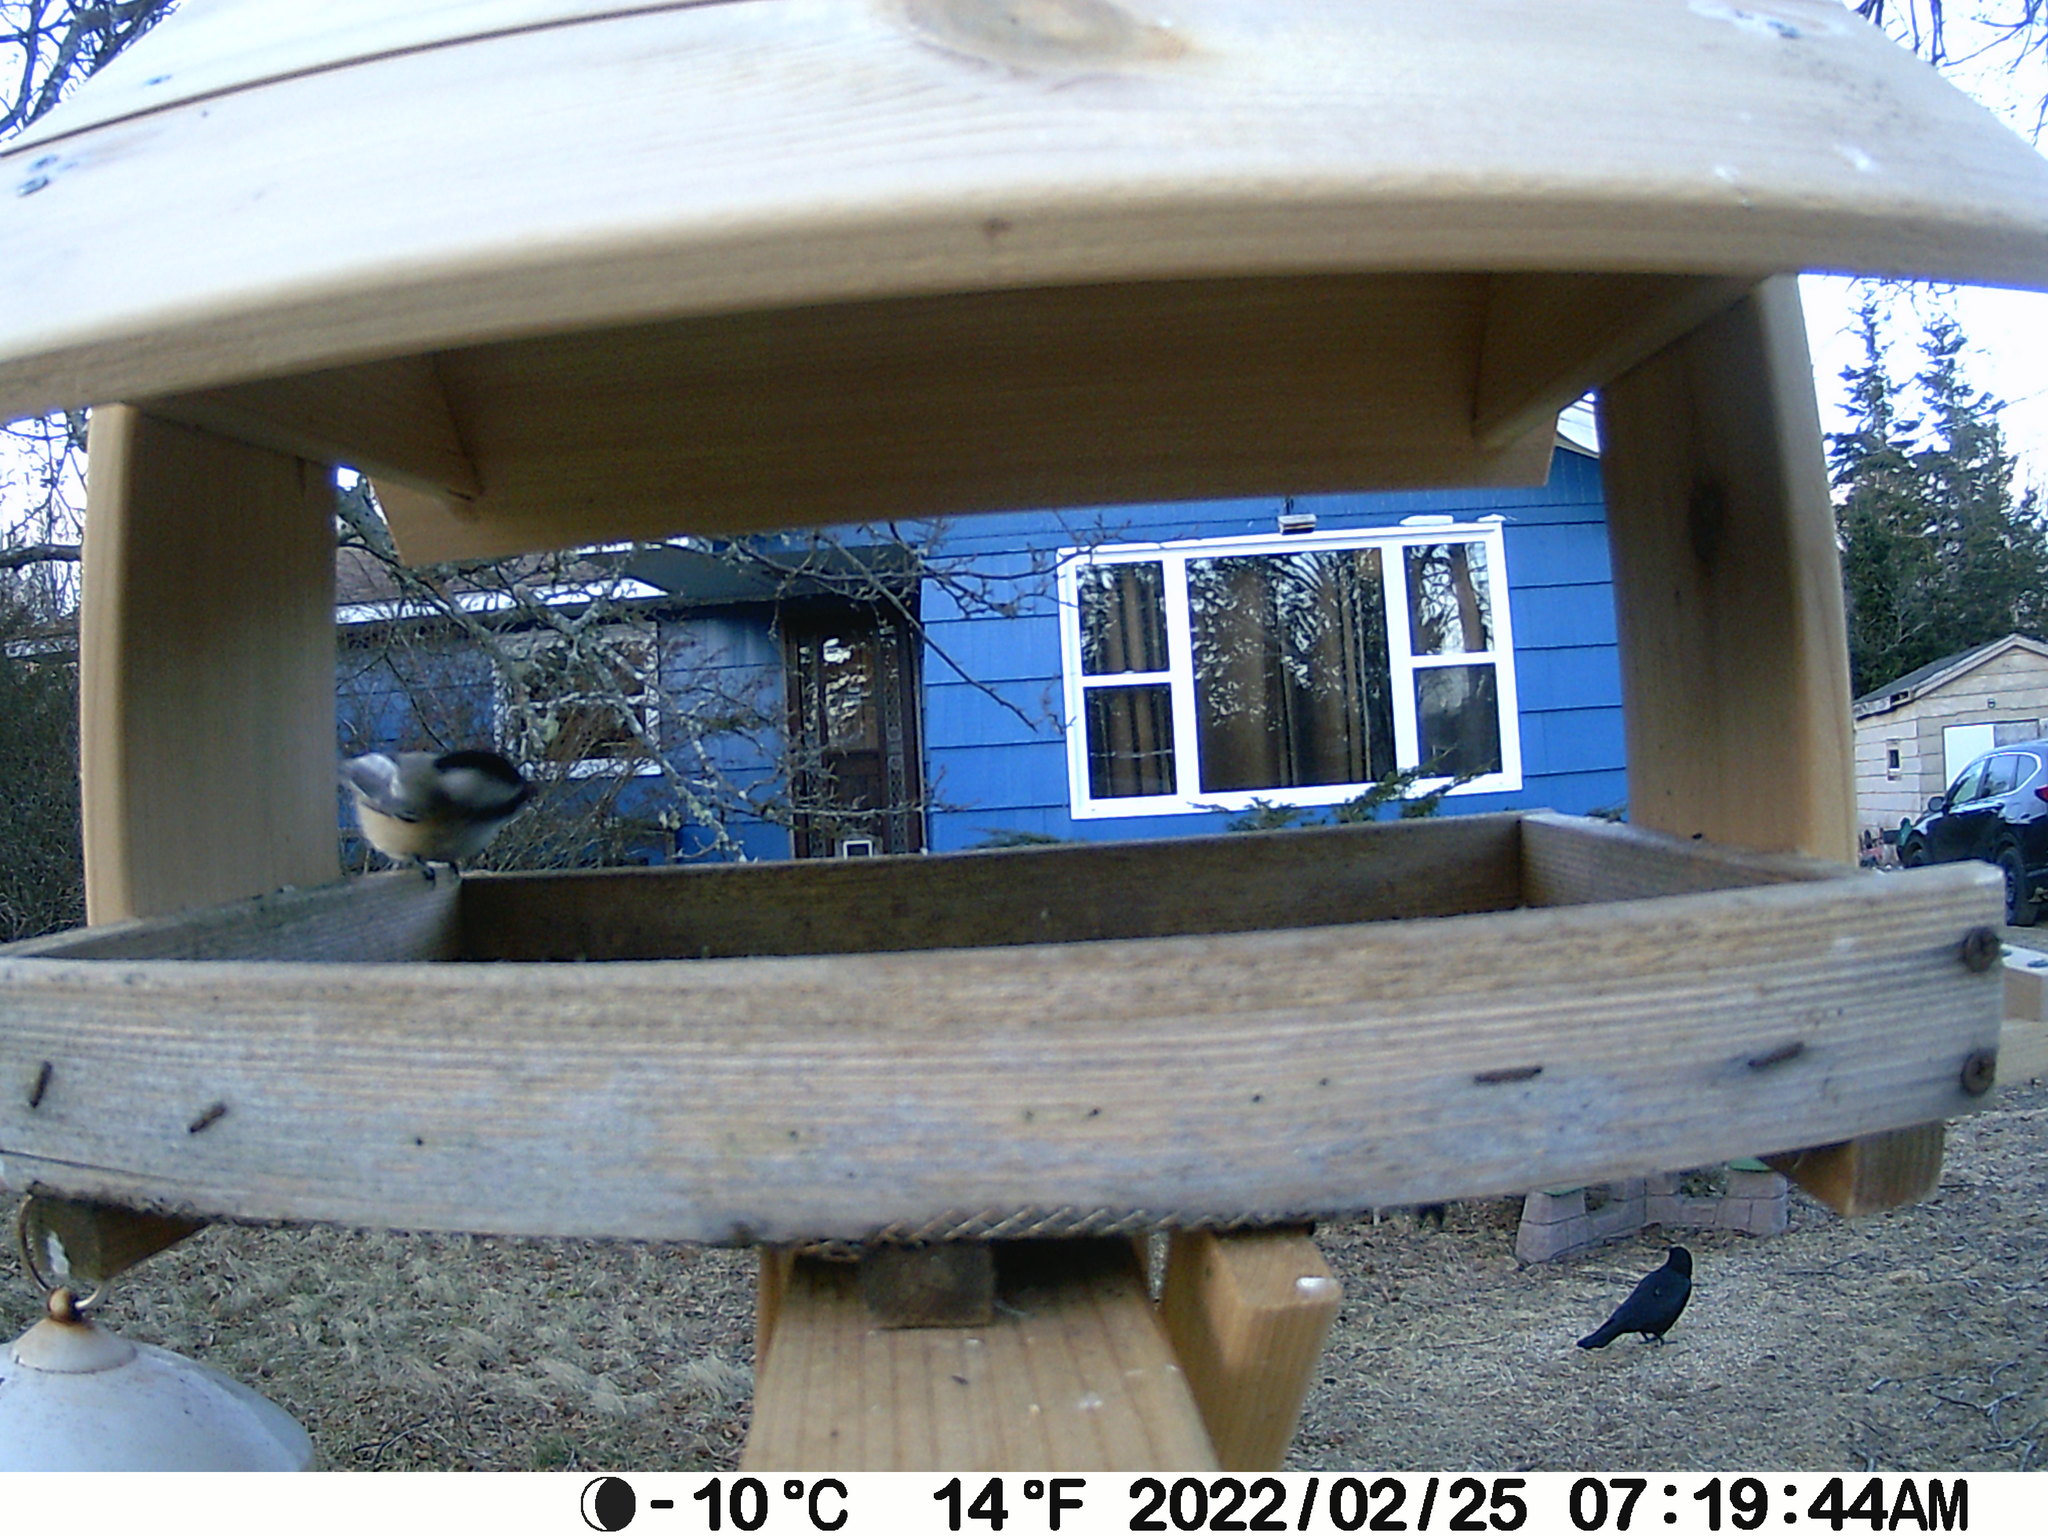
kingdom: Animalia
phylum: Chordata
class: Aves
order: Passeriformes
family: Corvidae
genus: Corvus
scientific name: Corvus brachyrhynchos
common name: American crow
